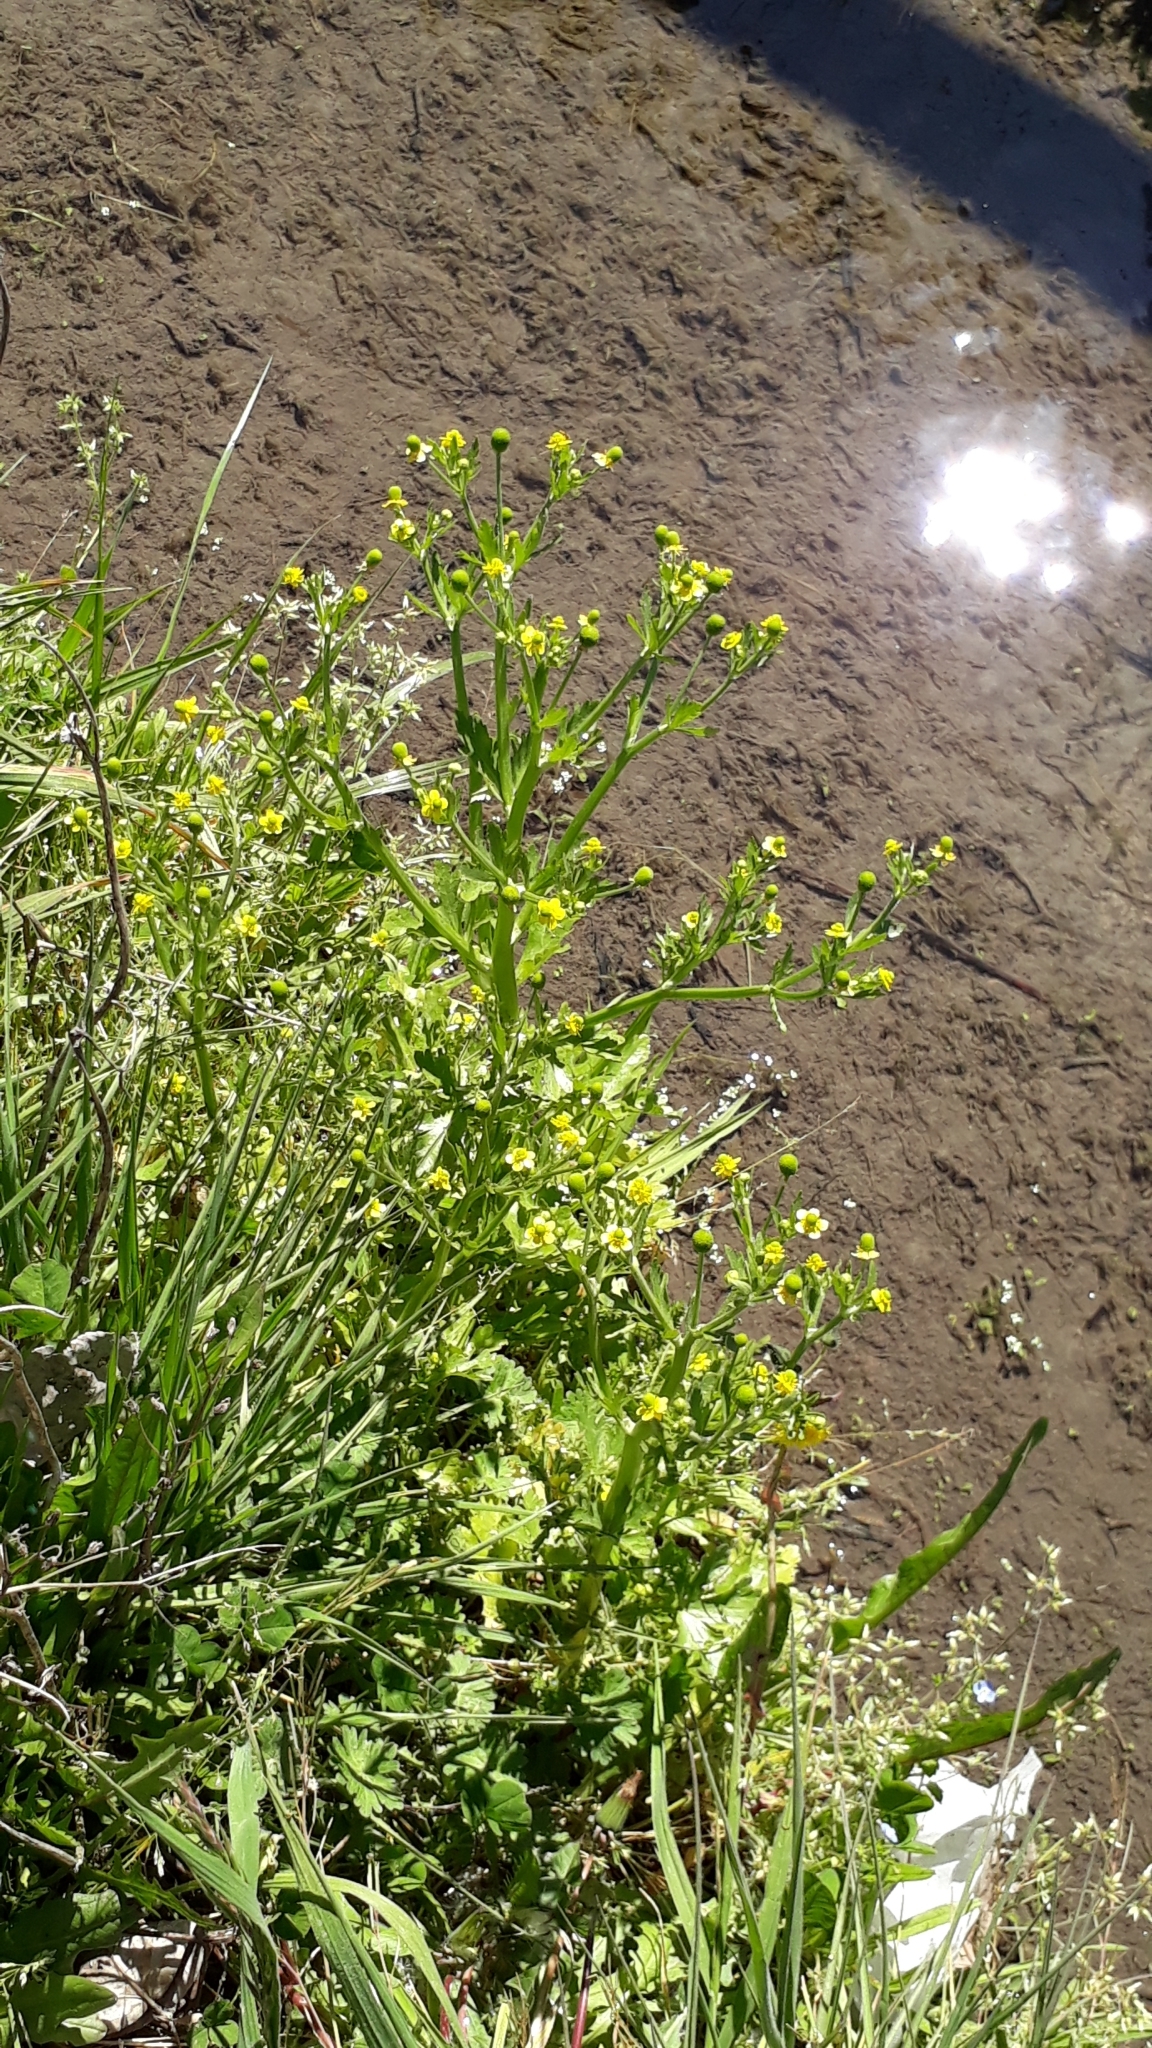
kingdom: Plantae
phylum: Tracheophyta
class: Magnoliopsida
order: Ranunculales
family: Ranunculaceae
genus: Ranunculus
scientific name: Ranunculus sceleratus
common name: Celery-leaved buttercup
